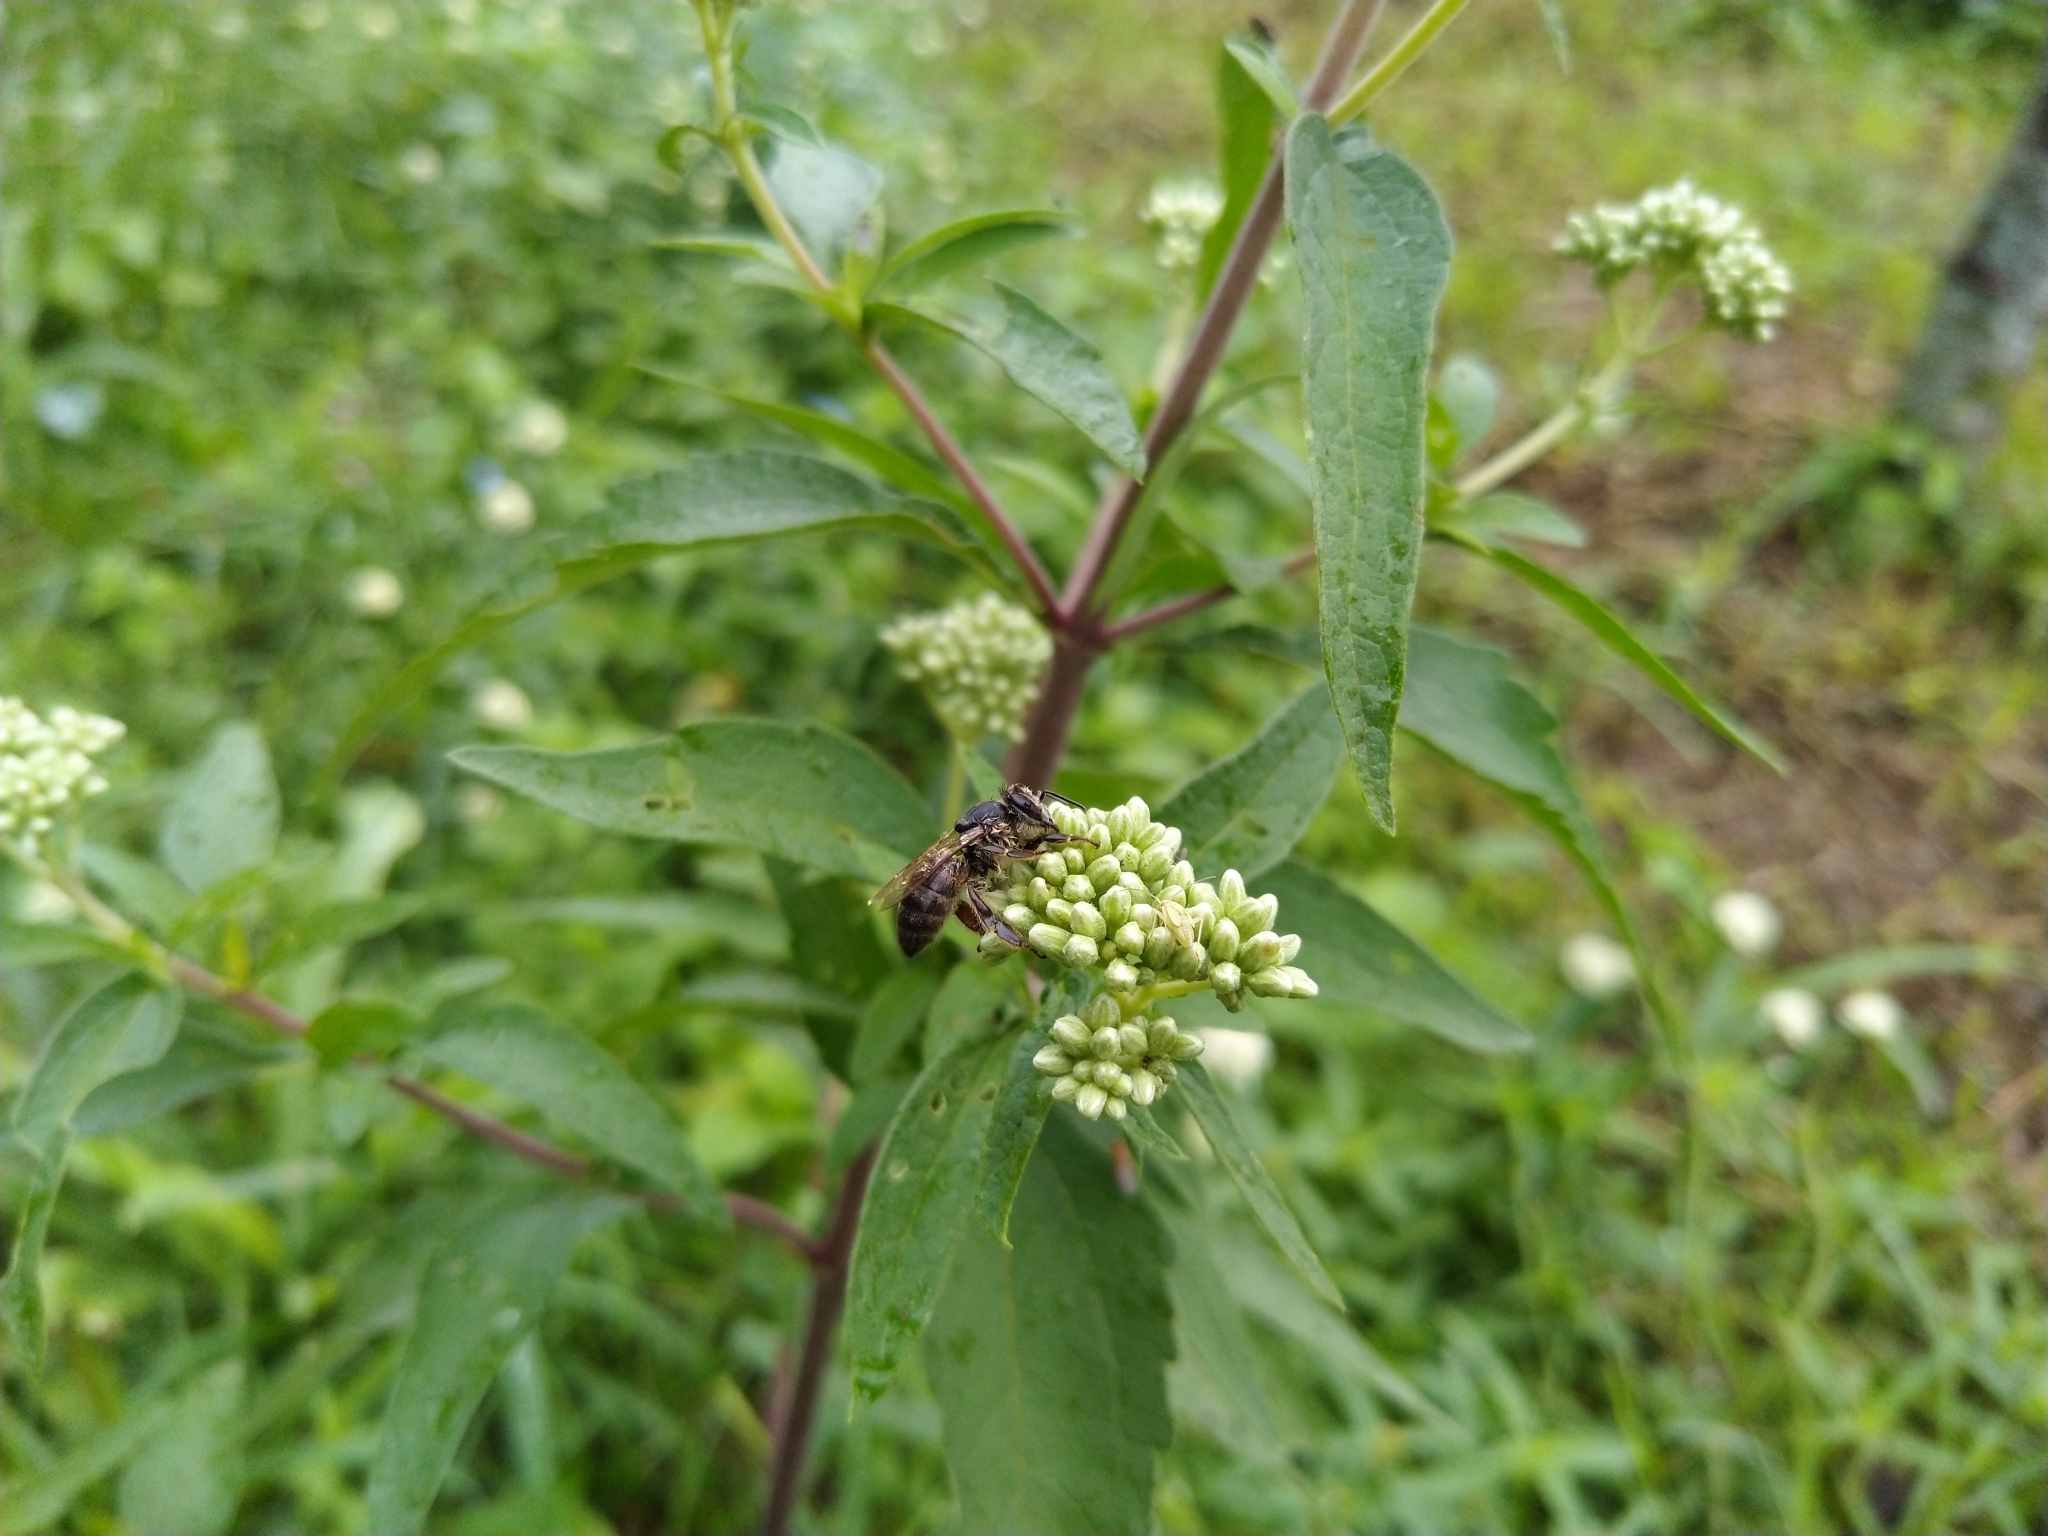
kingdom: Animalia
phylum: Arthropoda
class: Insecta
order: Hymenoptera
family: Apidae
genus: Apis
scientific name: Apis mellifera
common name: Honey bee
